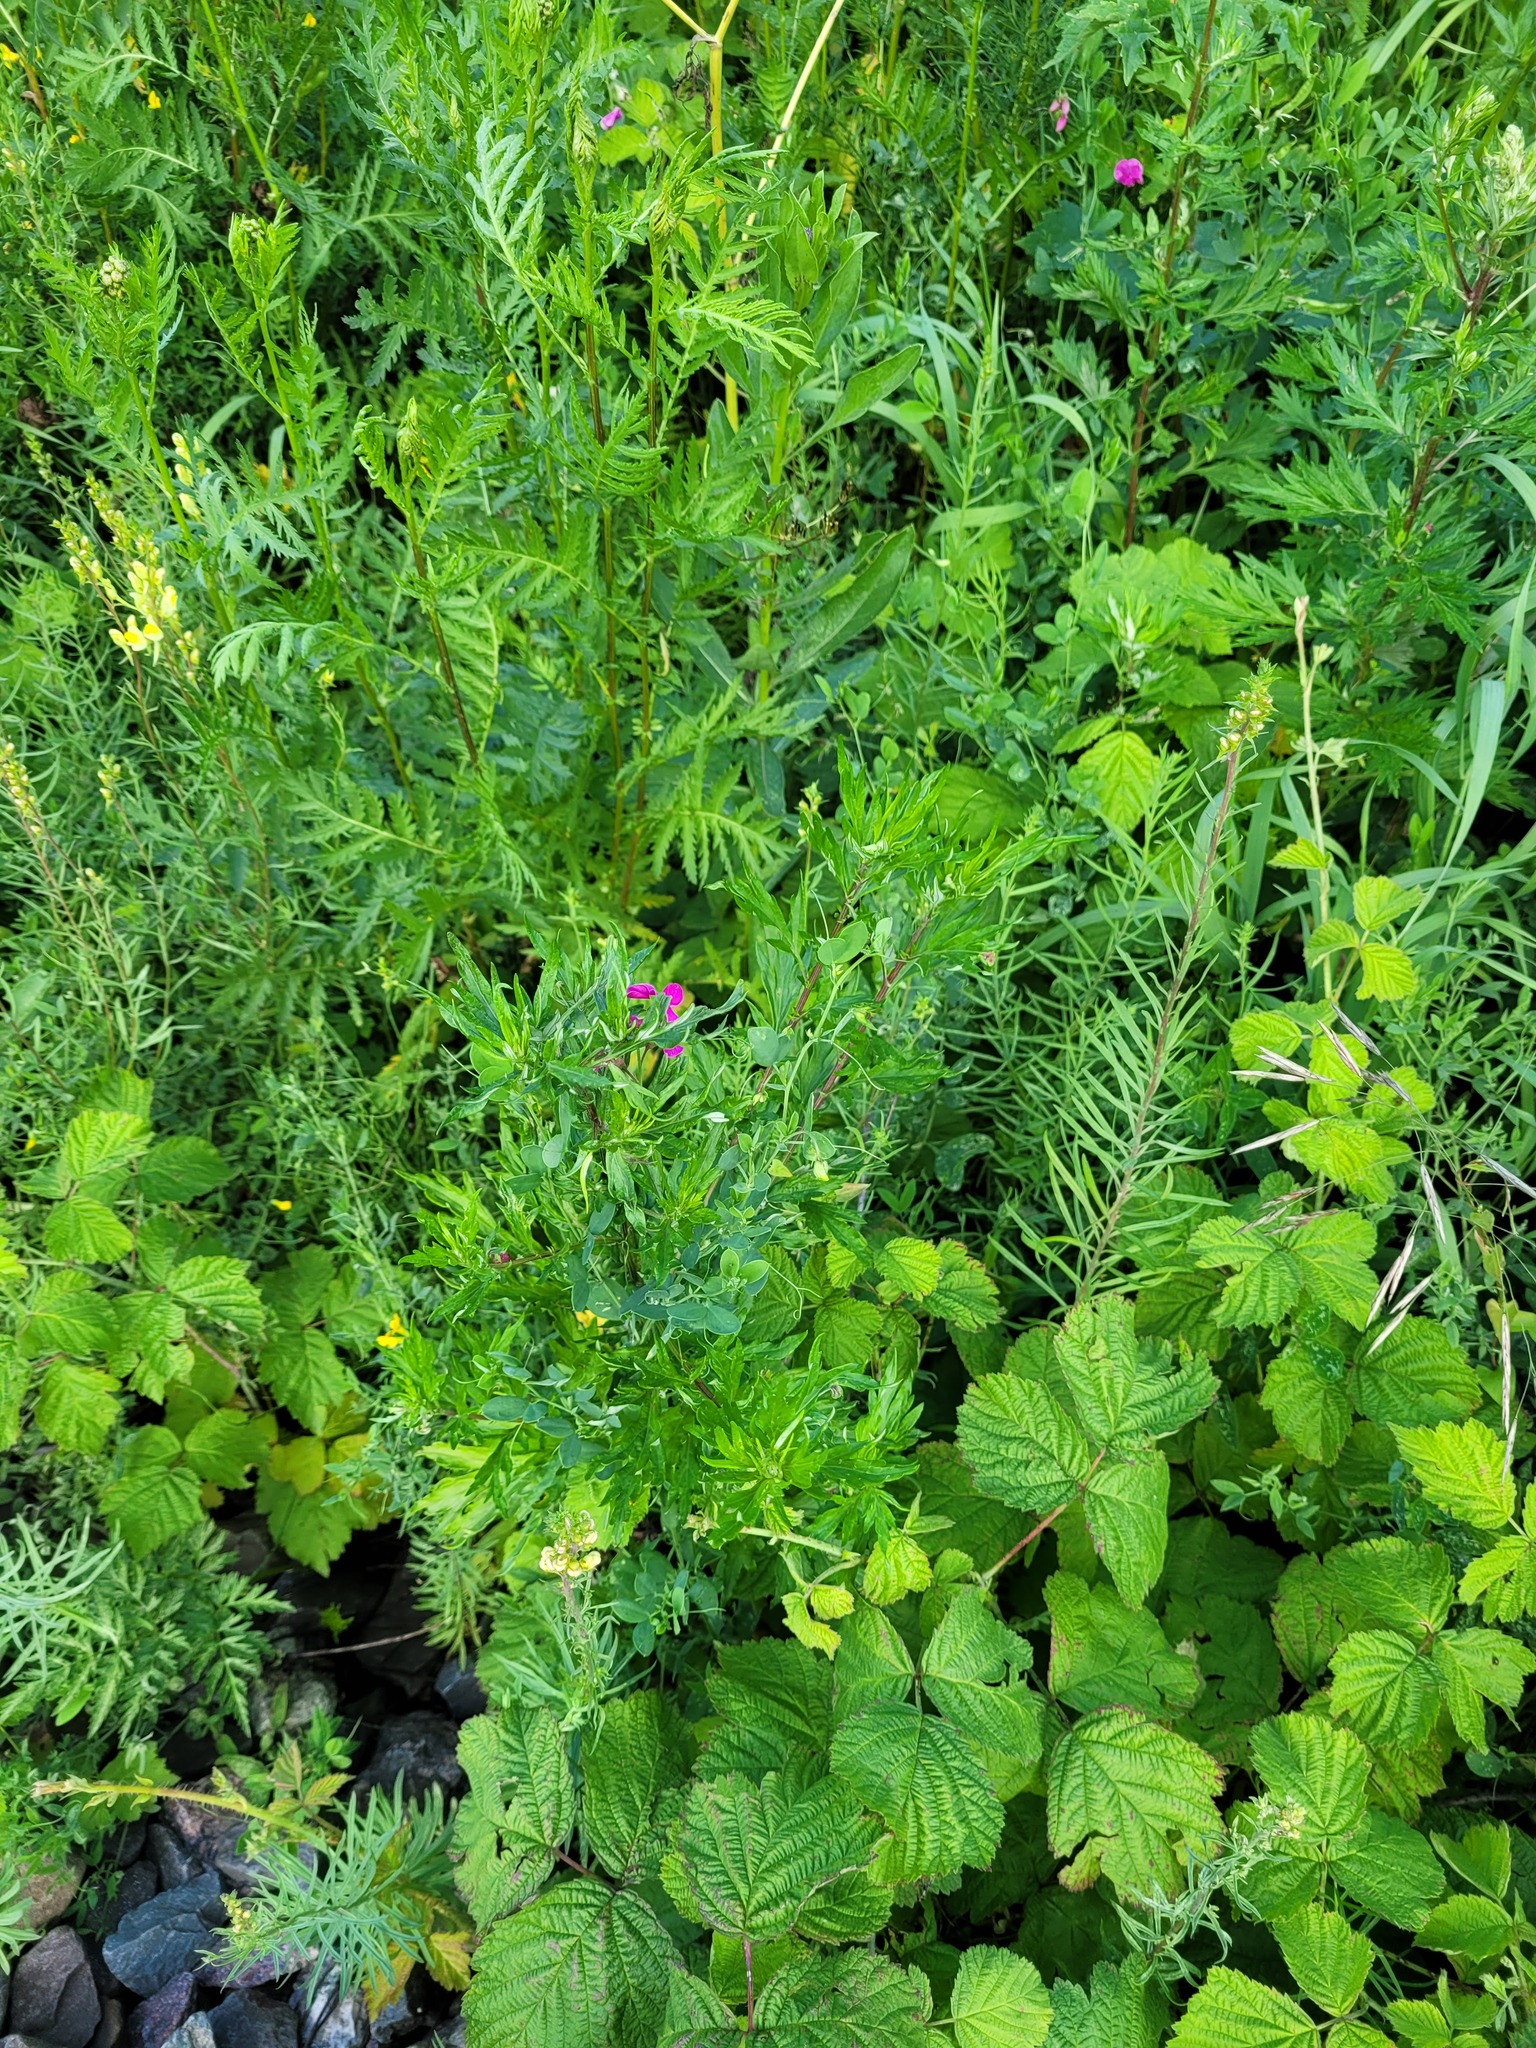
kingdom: Plantae
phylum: Tracheophyta
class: Magnoliopsida
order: Fabales
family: Fabaceae
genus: Lathyrus
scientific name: Lathyrus tuberosus
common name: Tuberous pea
